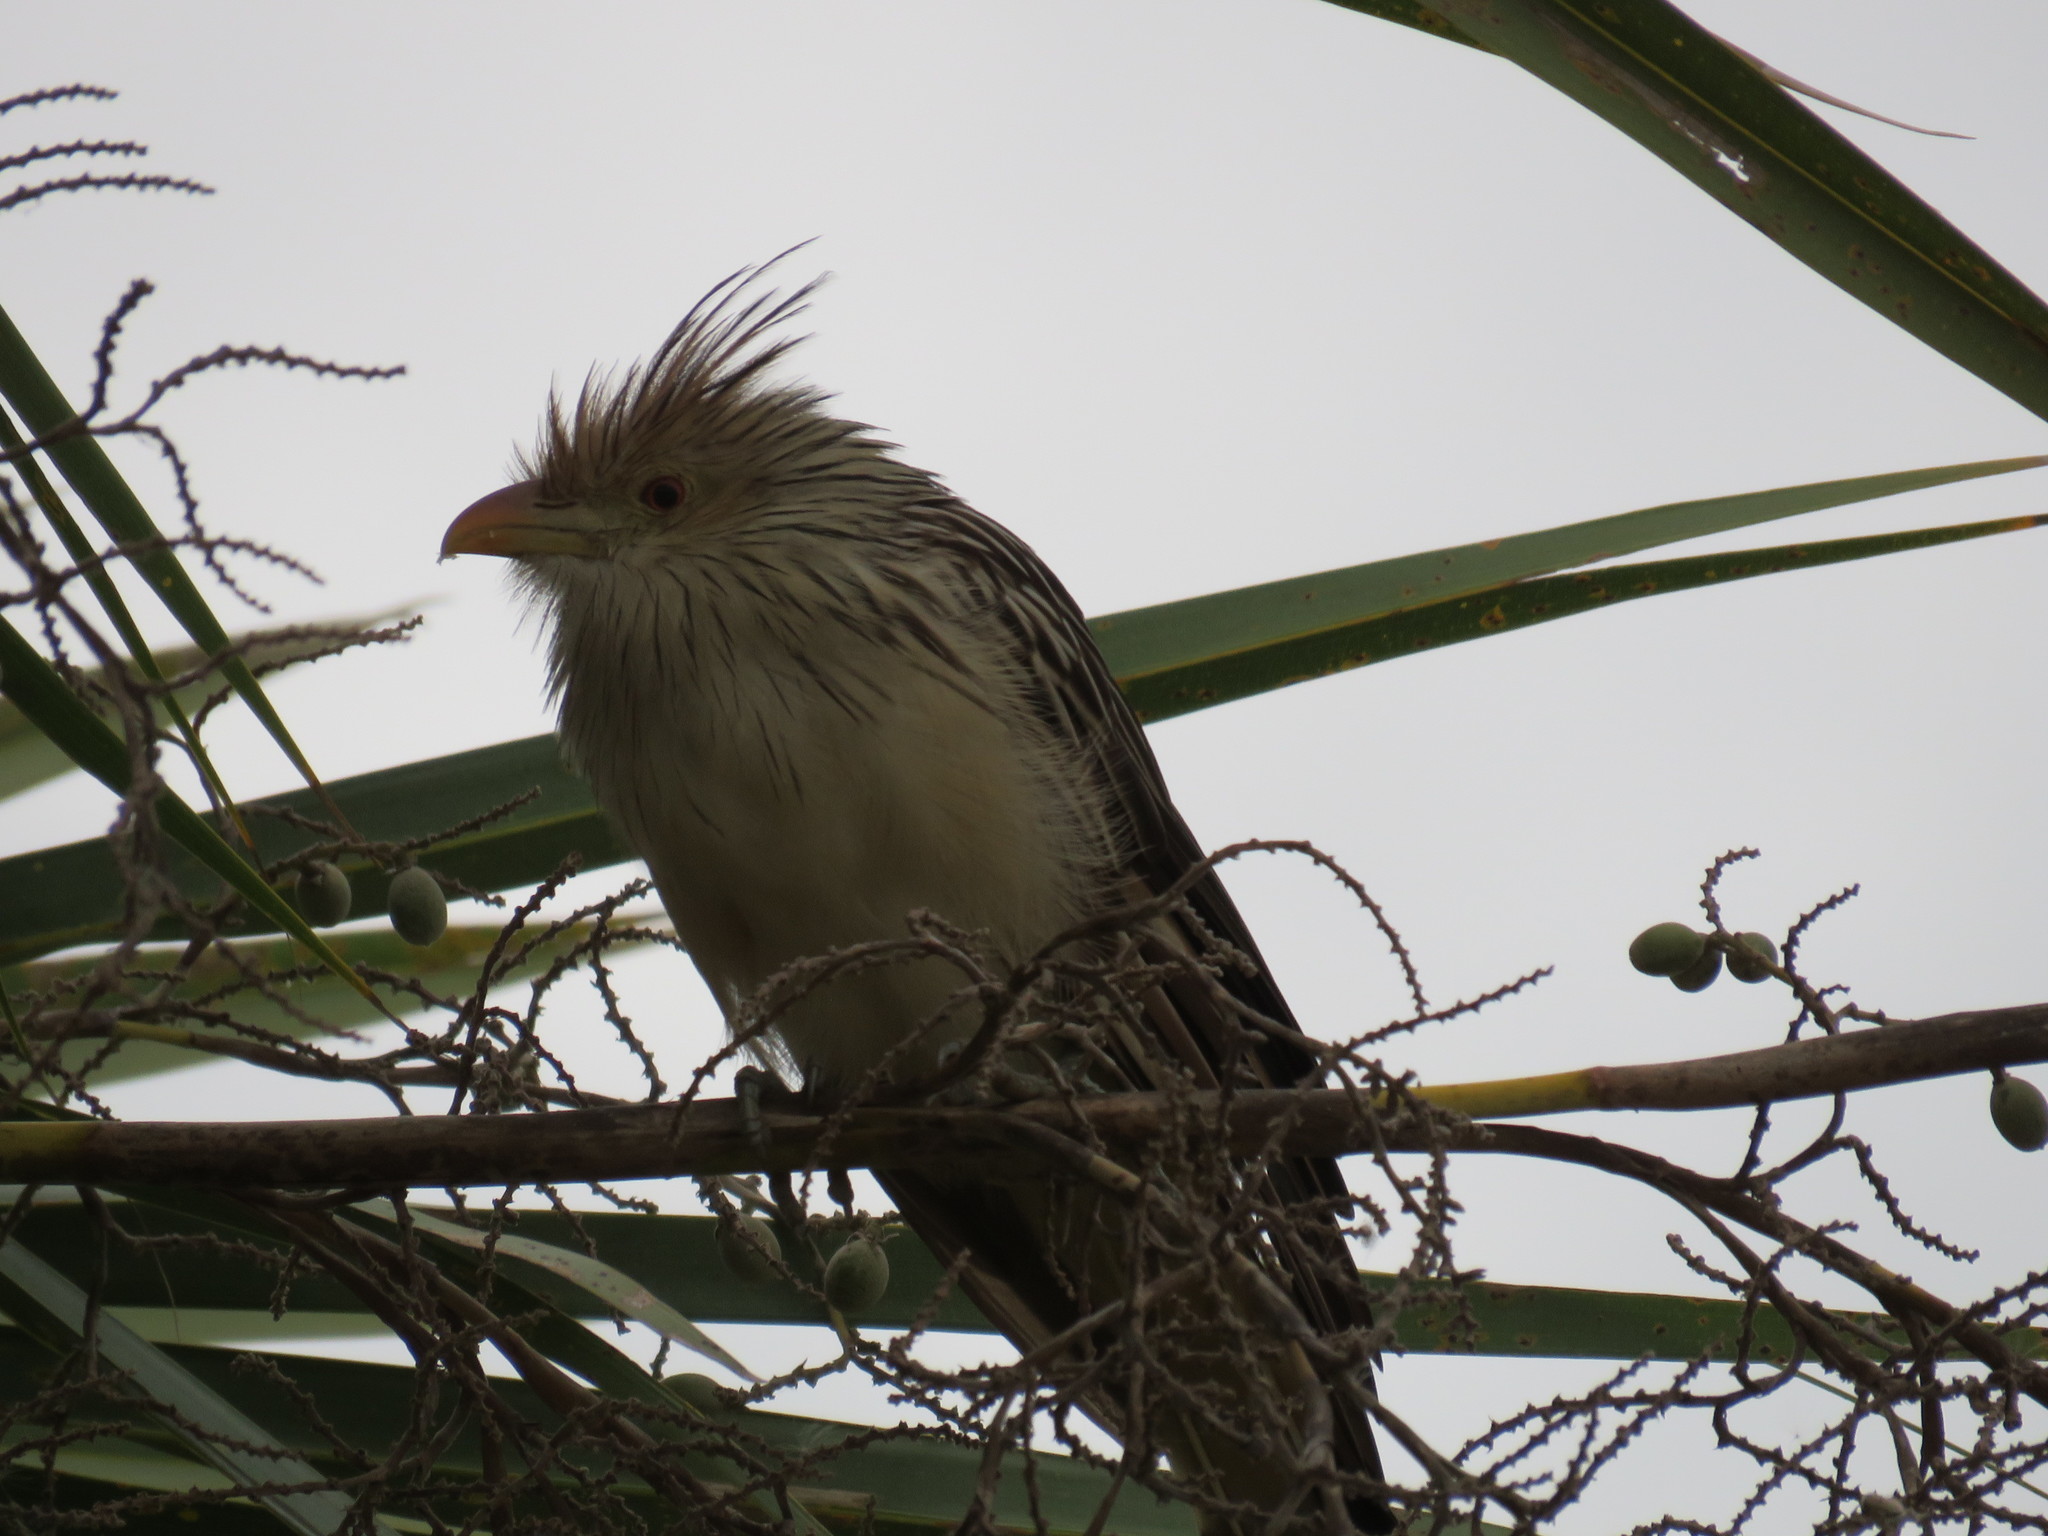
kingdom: Animalia
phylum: Chordata
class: Aves
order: Cuculiformes
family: Cuculidae
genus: Guira
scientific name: Guira guira
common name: Guira cuckoo
